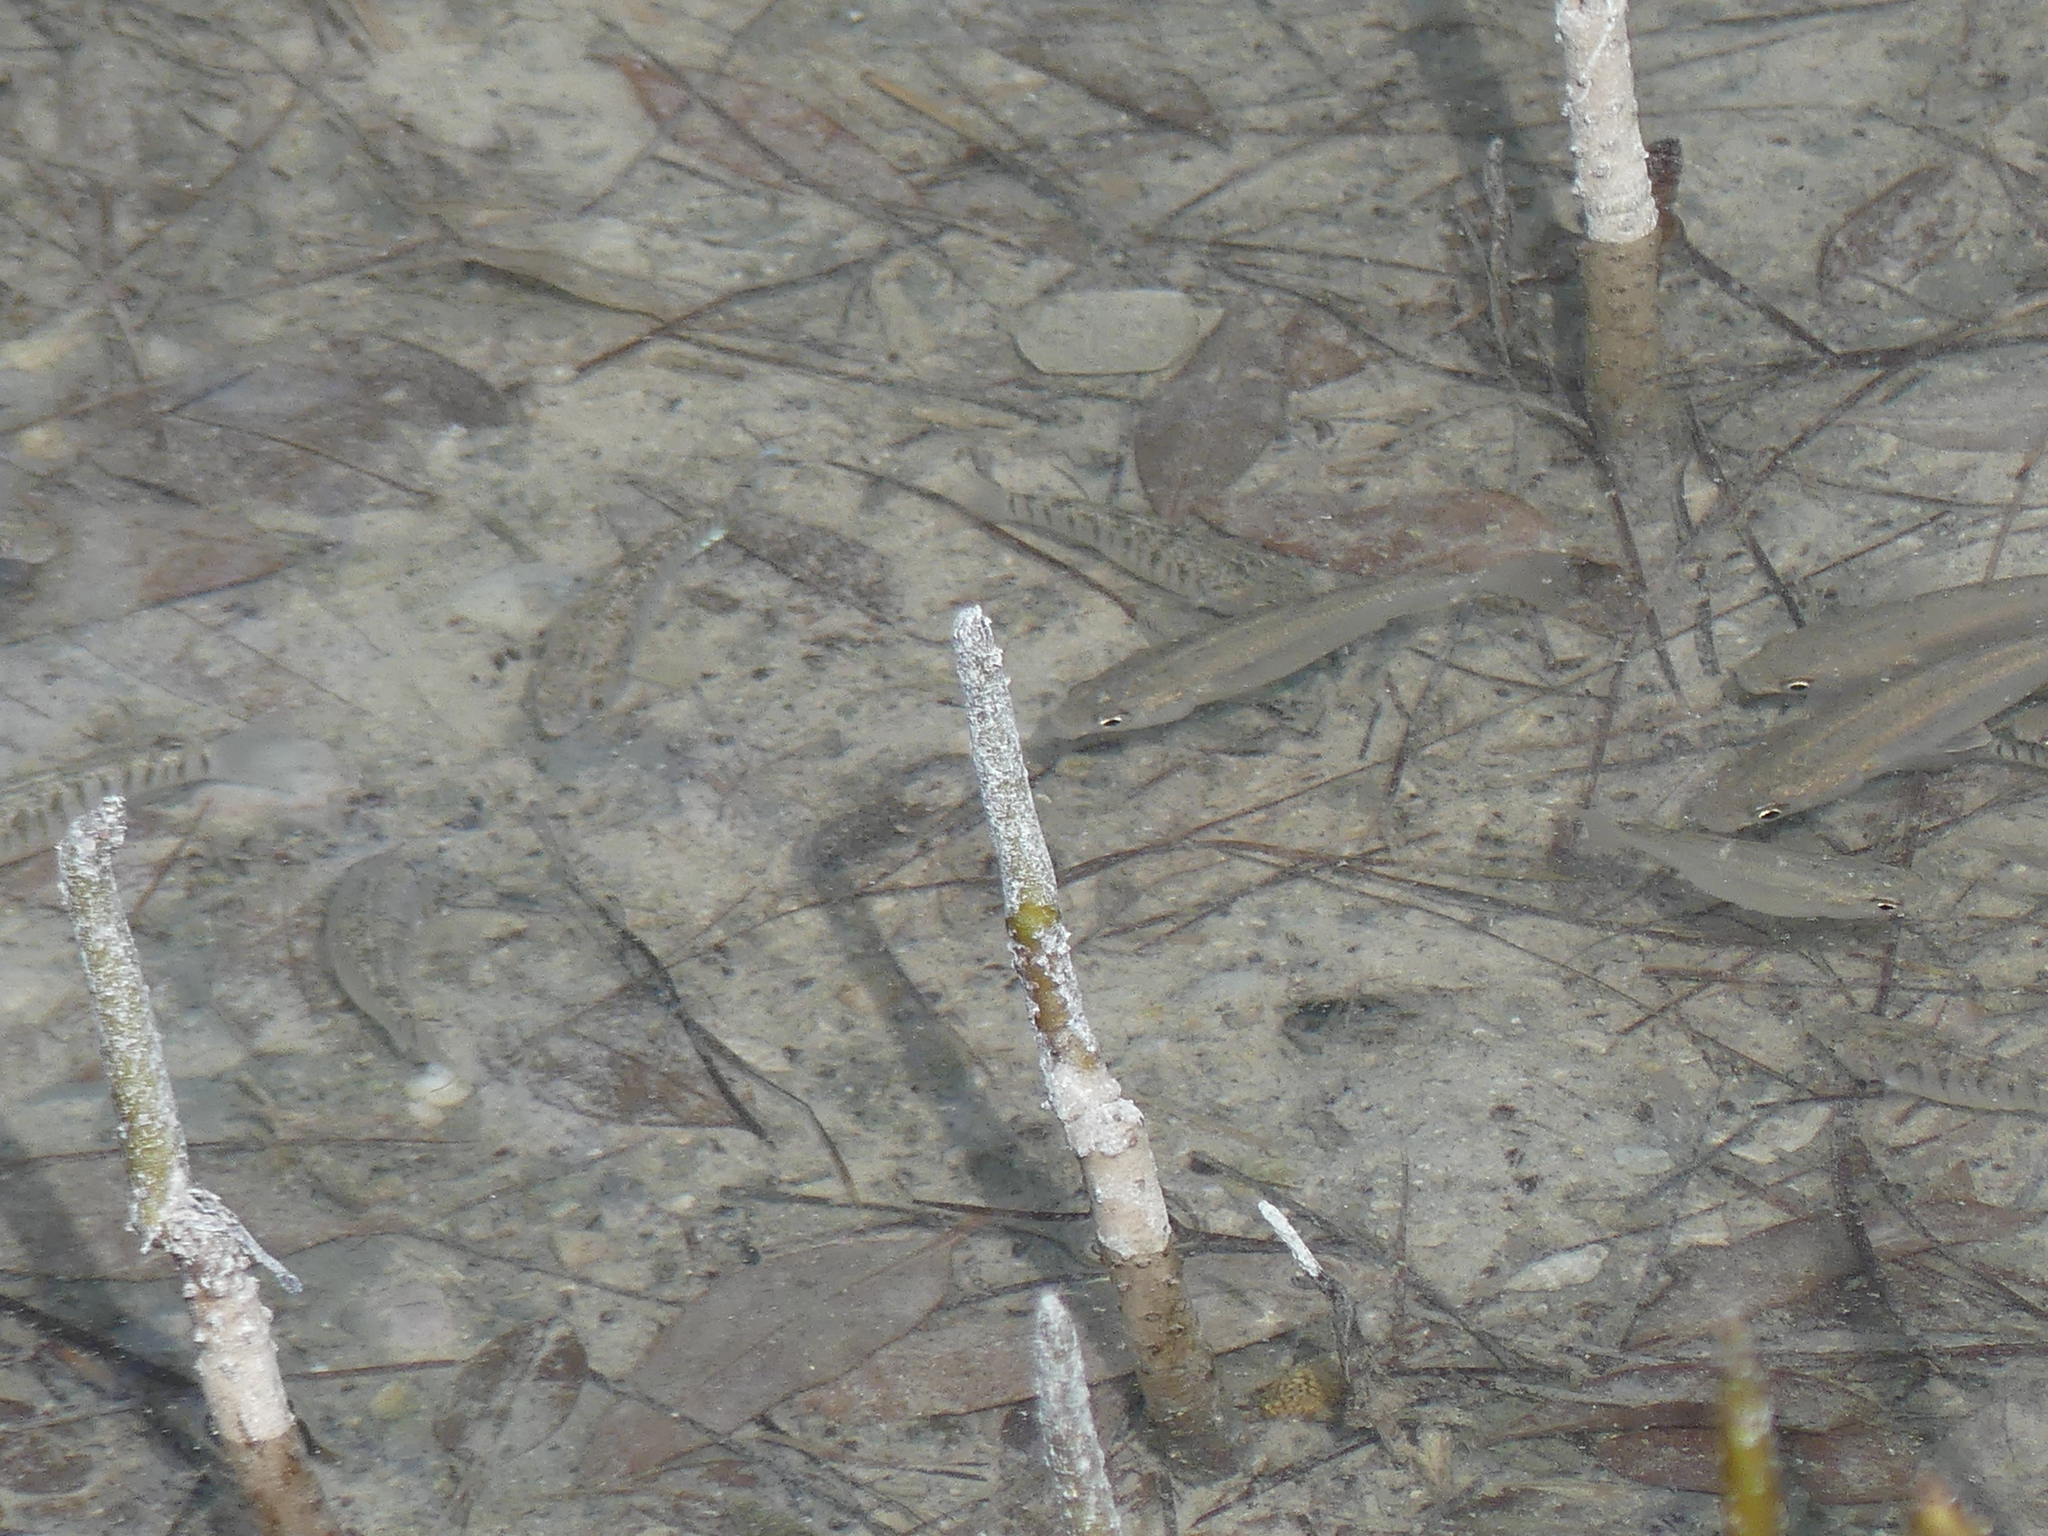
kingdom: Animalia
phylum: Chordata
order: Cyprinodontiformes
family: Cyprinodontidae
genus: Aphanius
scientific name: Aphanius dispar
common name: Arabian toothcarp
